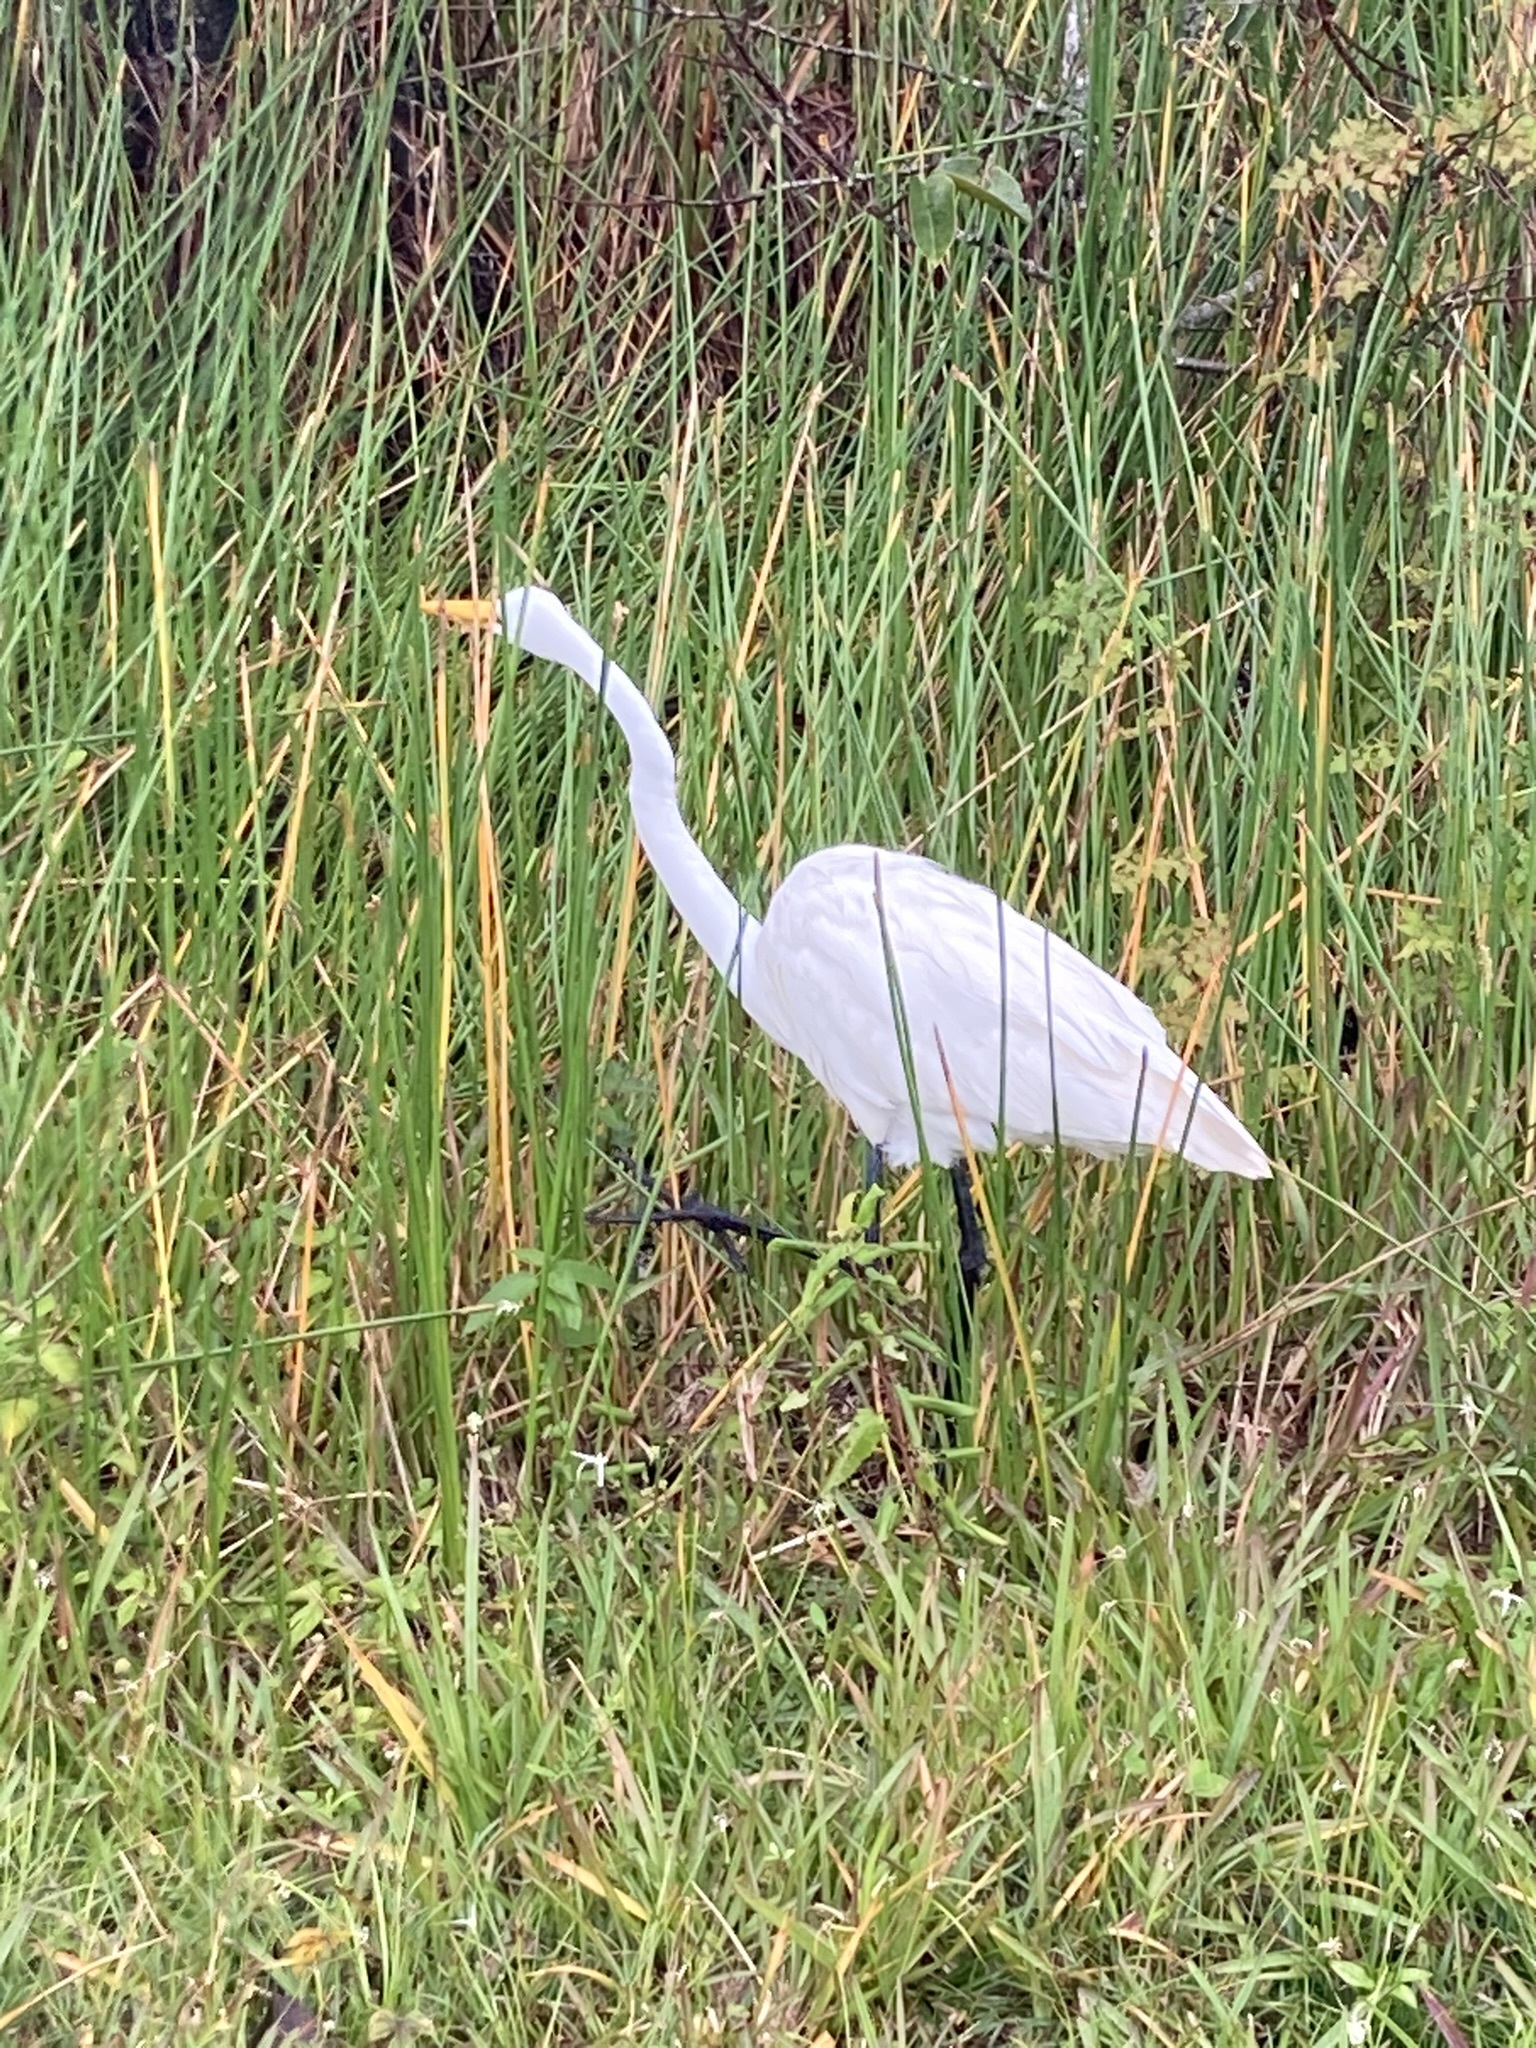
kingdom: Animalia
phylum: Chordata
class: Aves
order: Pelecaniformes
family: Ardeidae
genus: Ardea
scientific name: Ardea alba
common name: Great egret
